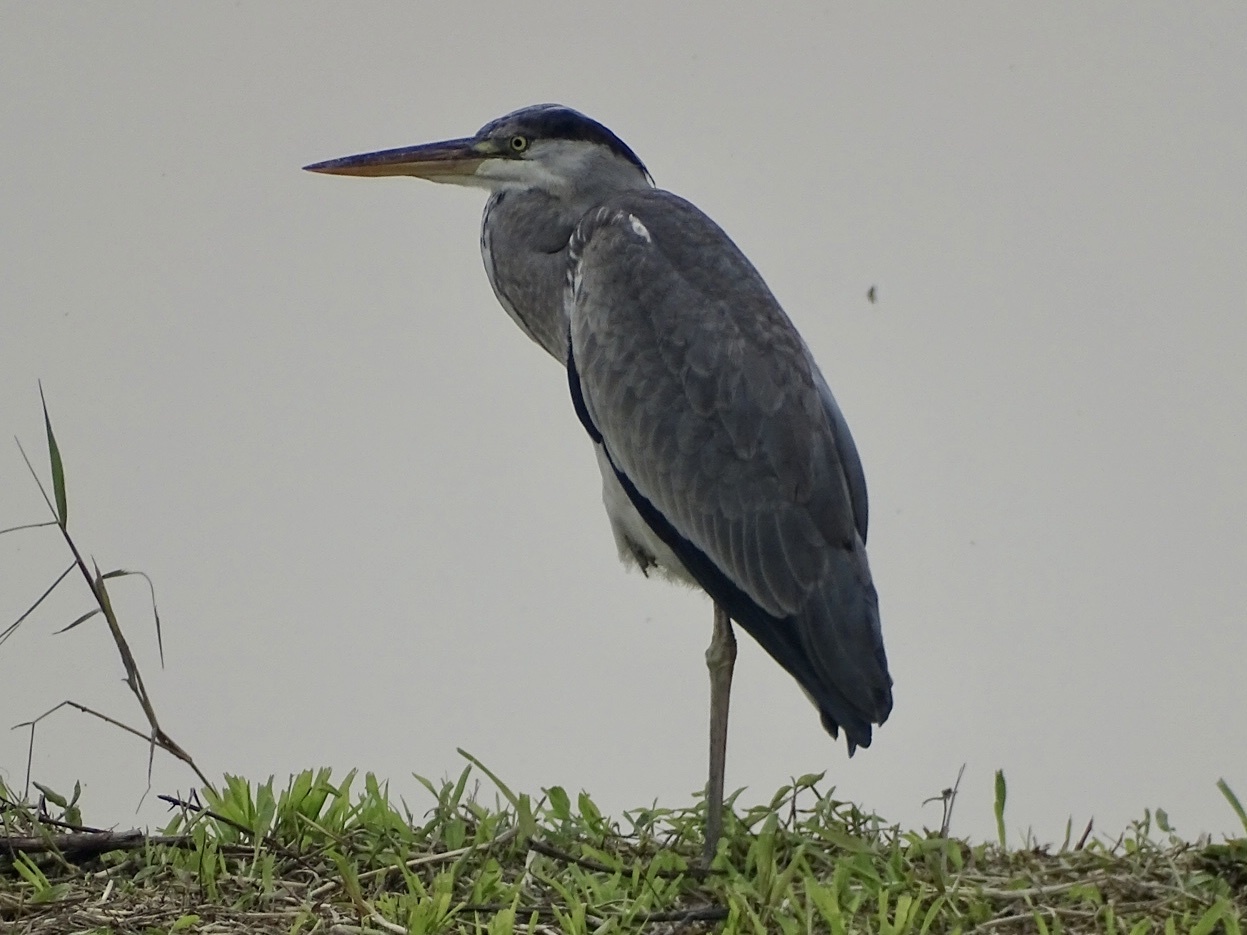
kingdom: Animalia
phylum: Chordata
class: Aves
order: Pelecaniformes
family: Ardeidae
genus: Ardea
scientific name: Ardea cinerea
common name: Grey heron
